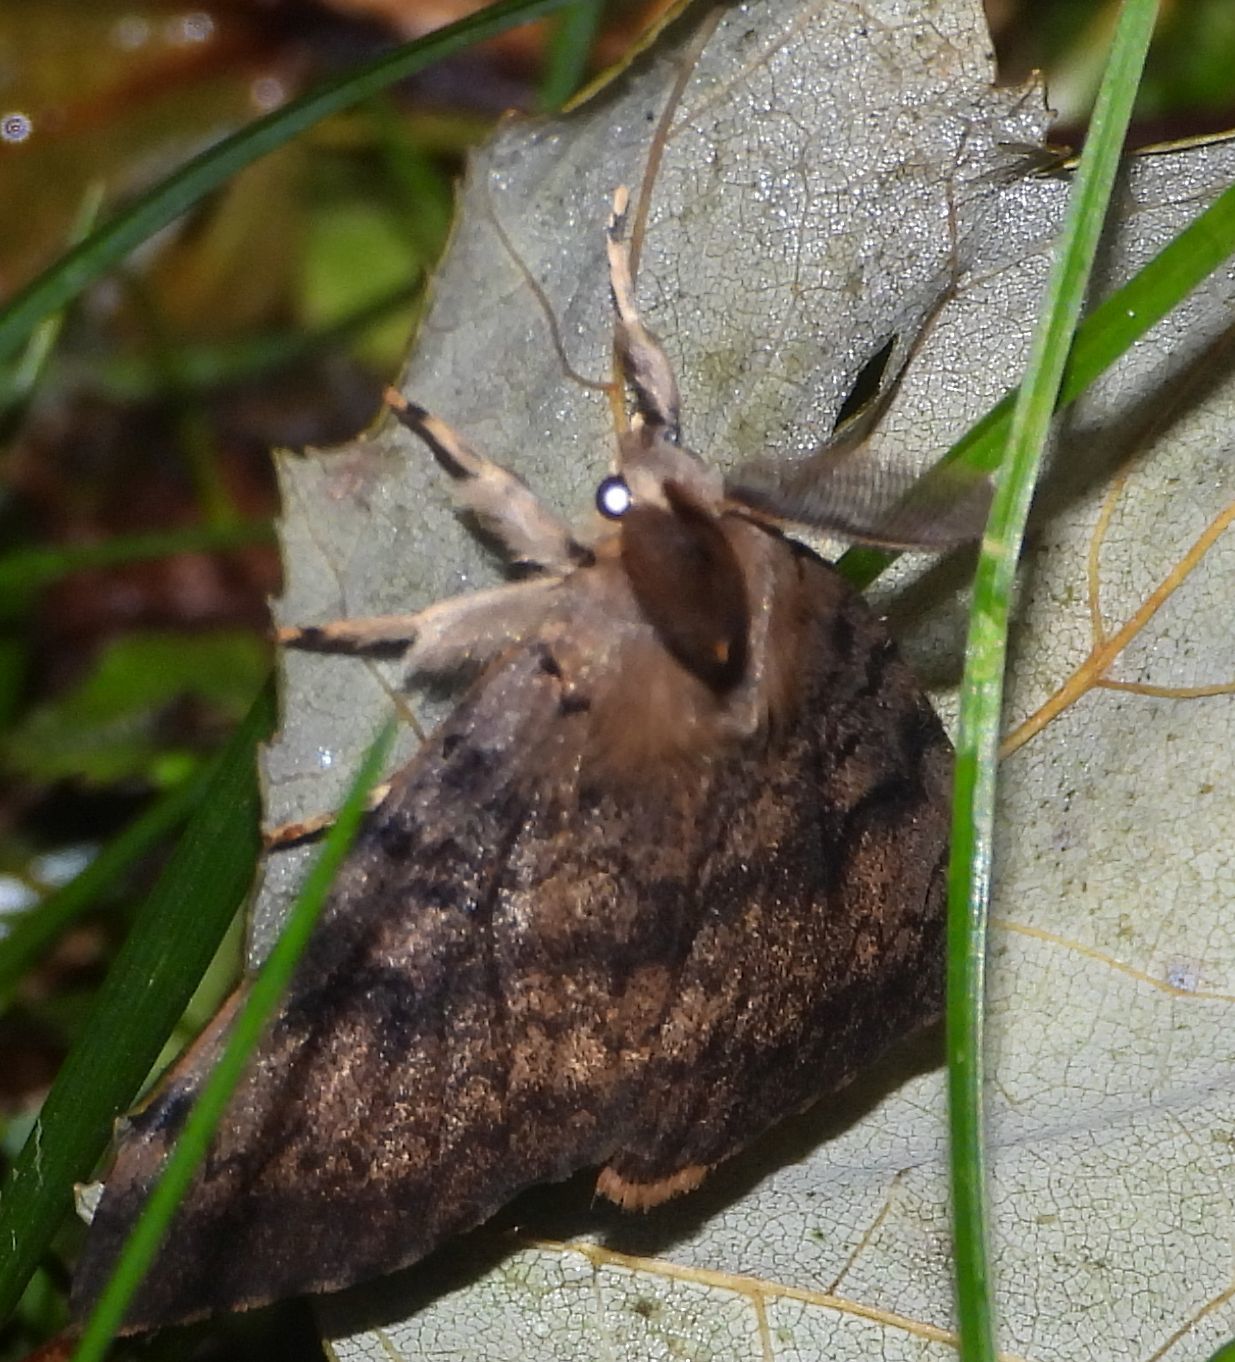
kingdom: Animalia
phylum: Arthropoda
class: Insecta
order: Lepidoptera
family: Erebidae
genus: Lymantria
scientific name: Lymantria dispar
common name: Gypsy moth
